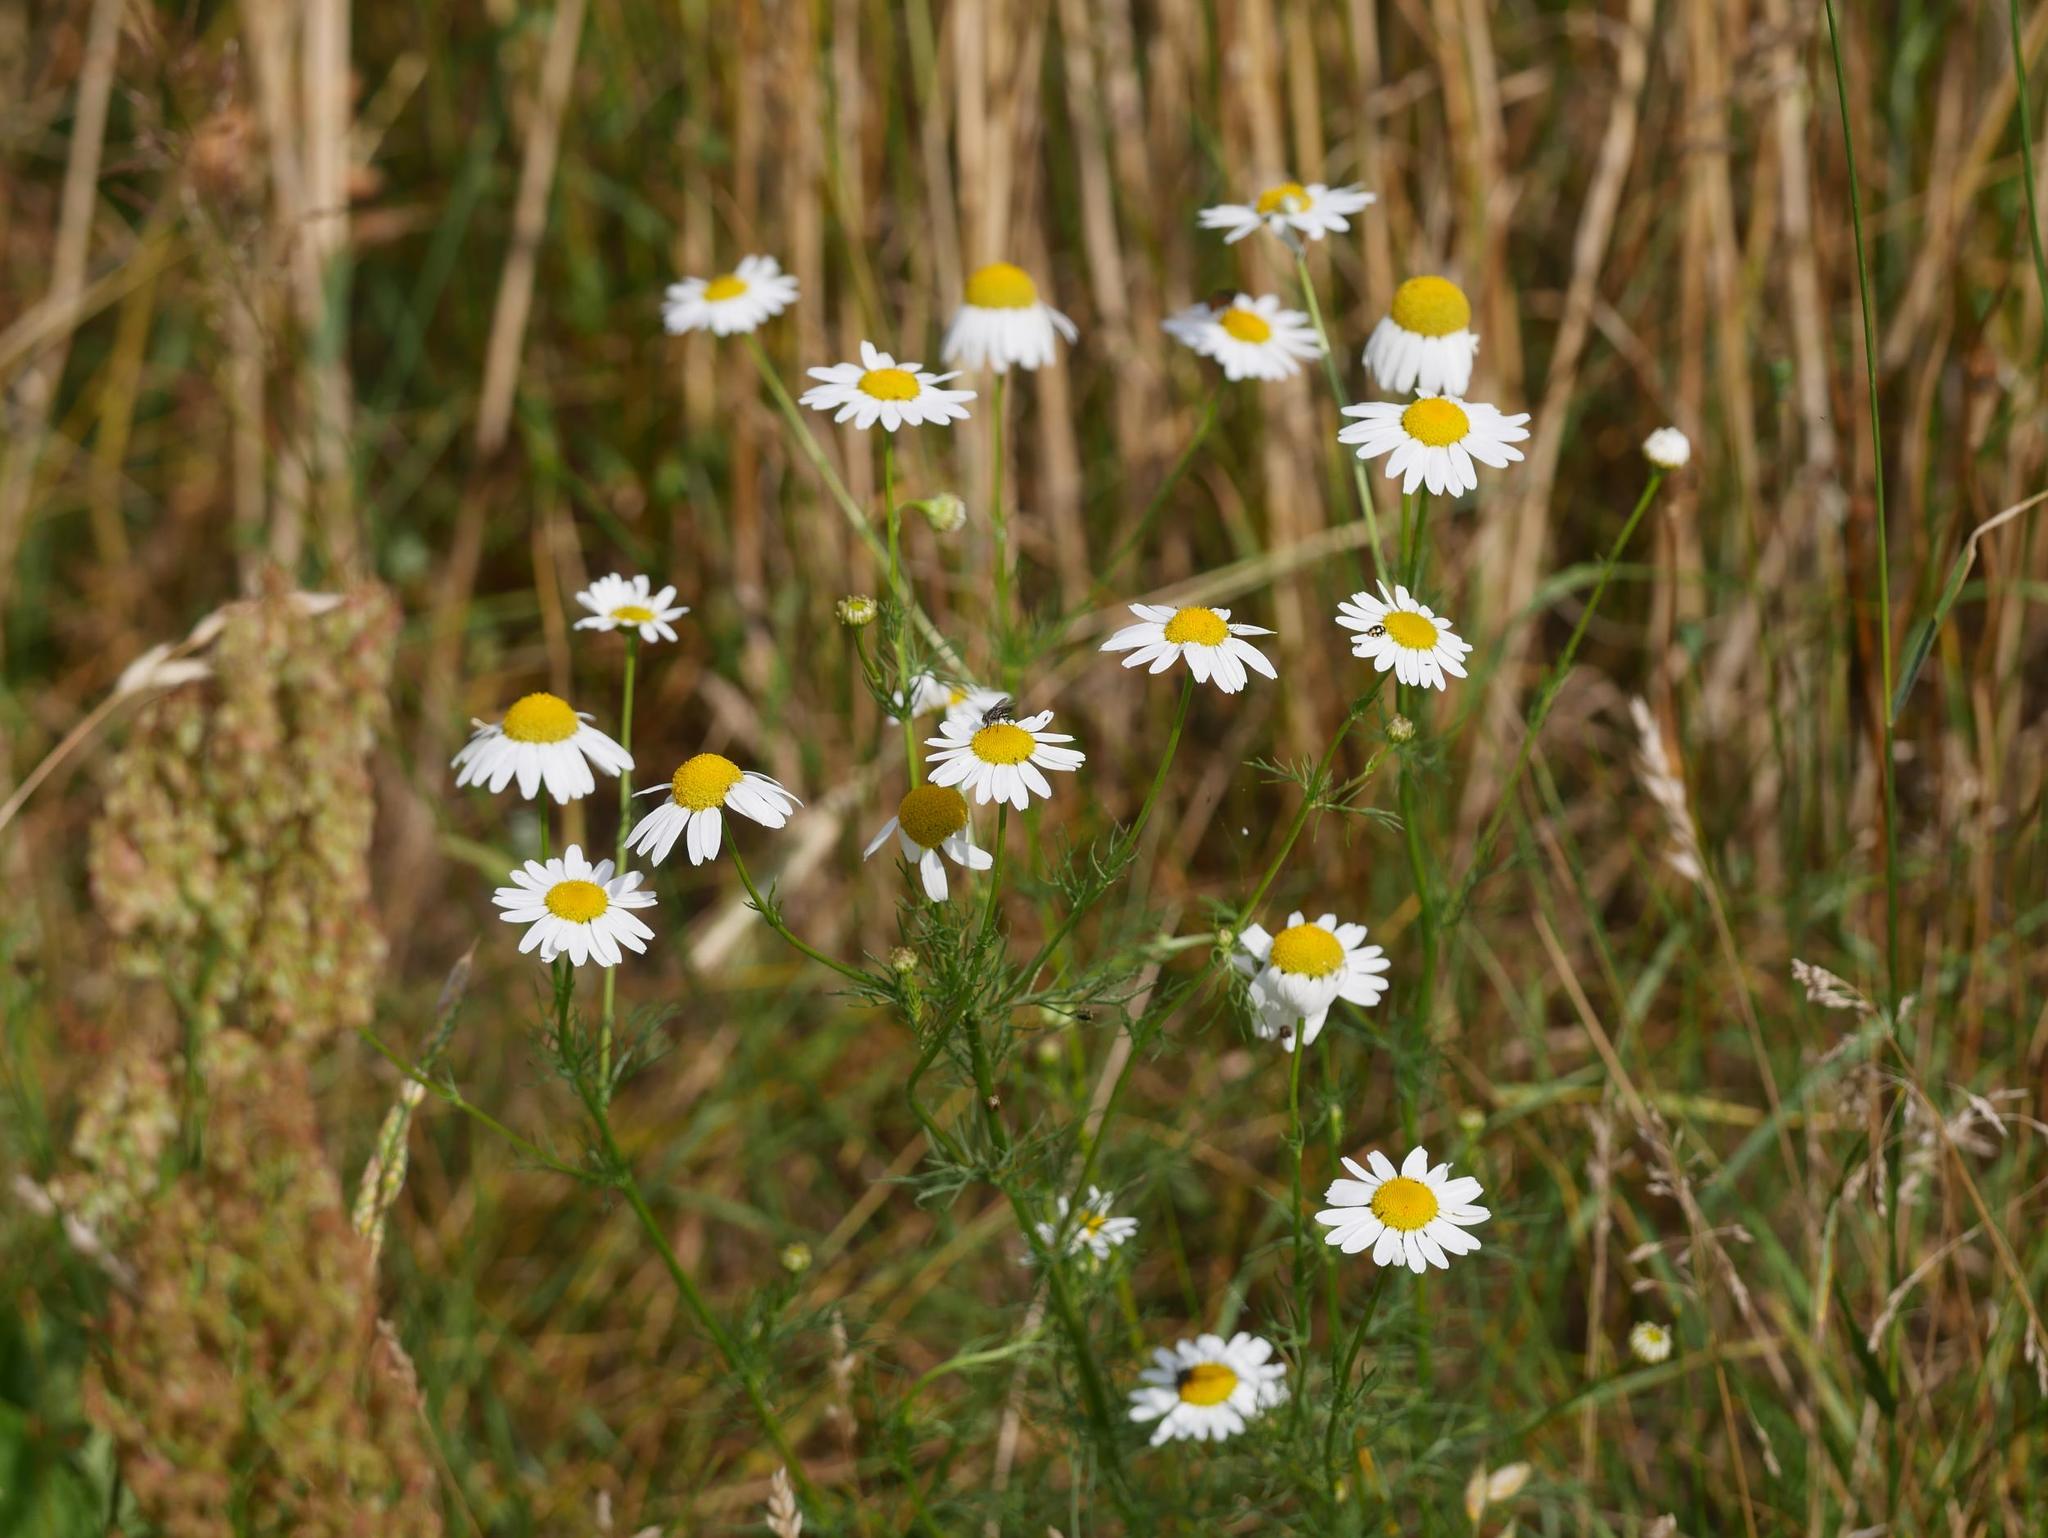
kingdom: Plantae
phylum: Tracheophyta
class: Magnoliopsida
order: Asterales
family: Asteraceae
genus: Tripleurospermum
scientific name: Tripleurospermum inodorum
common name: Scentless mayweed
